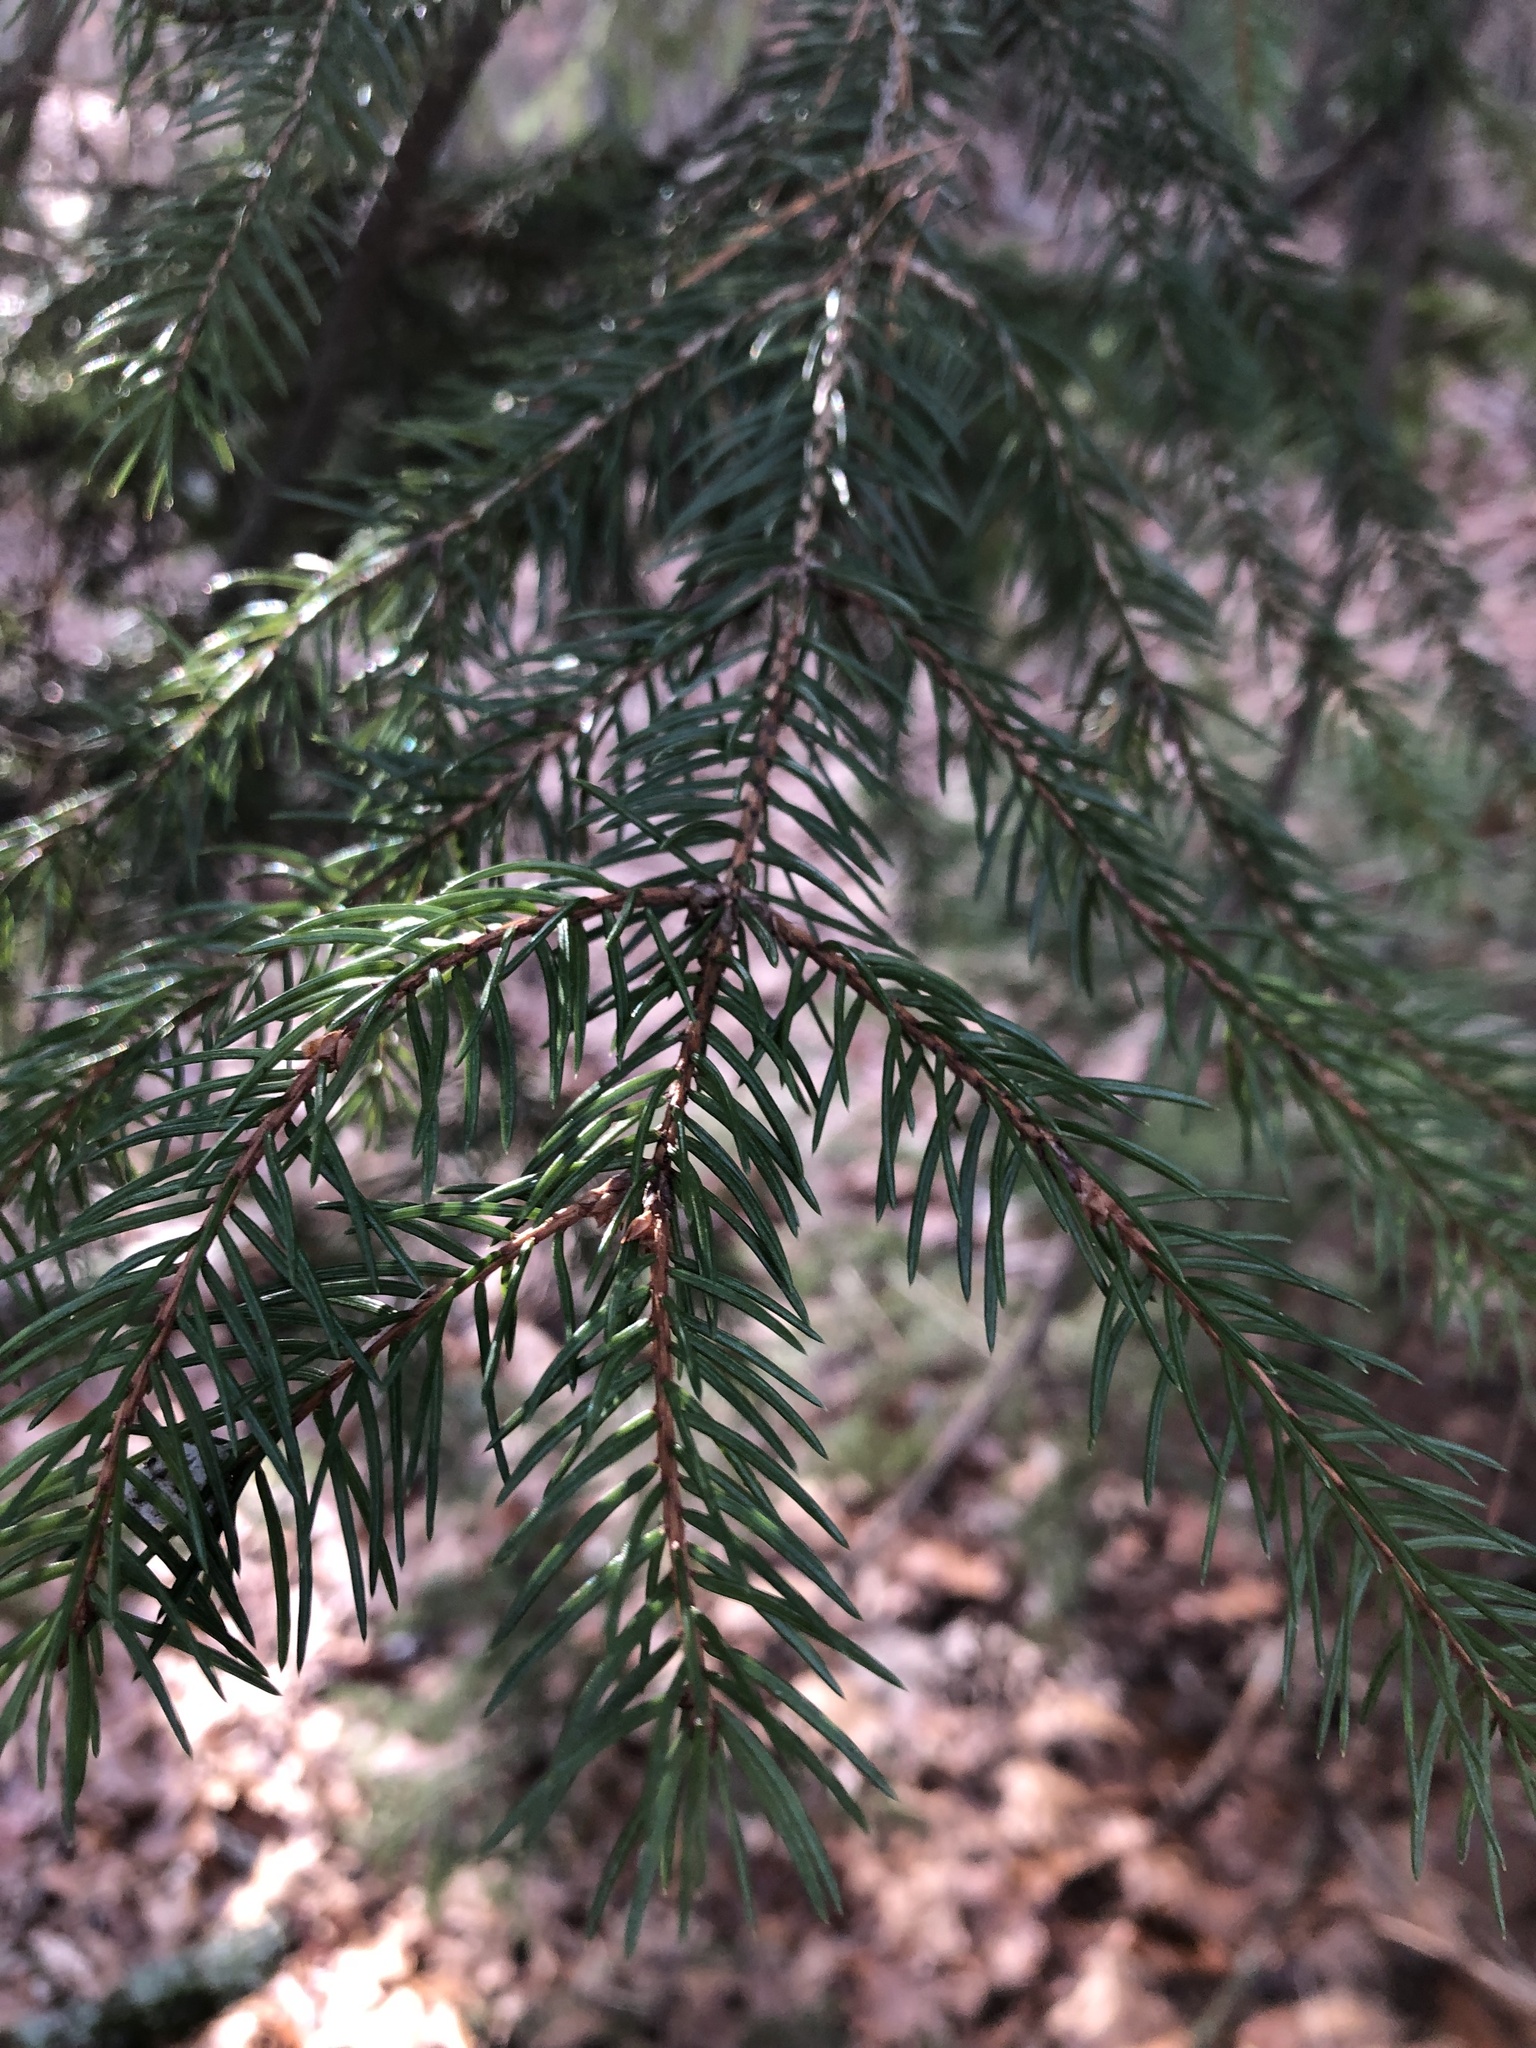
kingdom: Plantae
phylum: Tracheophyta
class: Pinopsida
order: Pinales
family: Pinaceae
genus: Picea
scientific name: Picea abies
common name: Norway spruce
